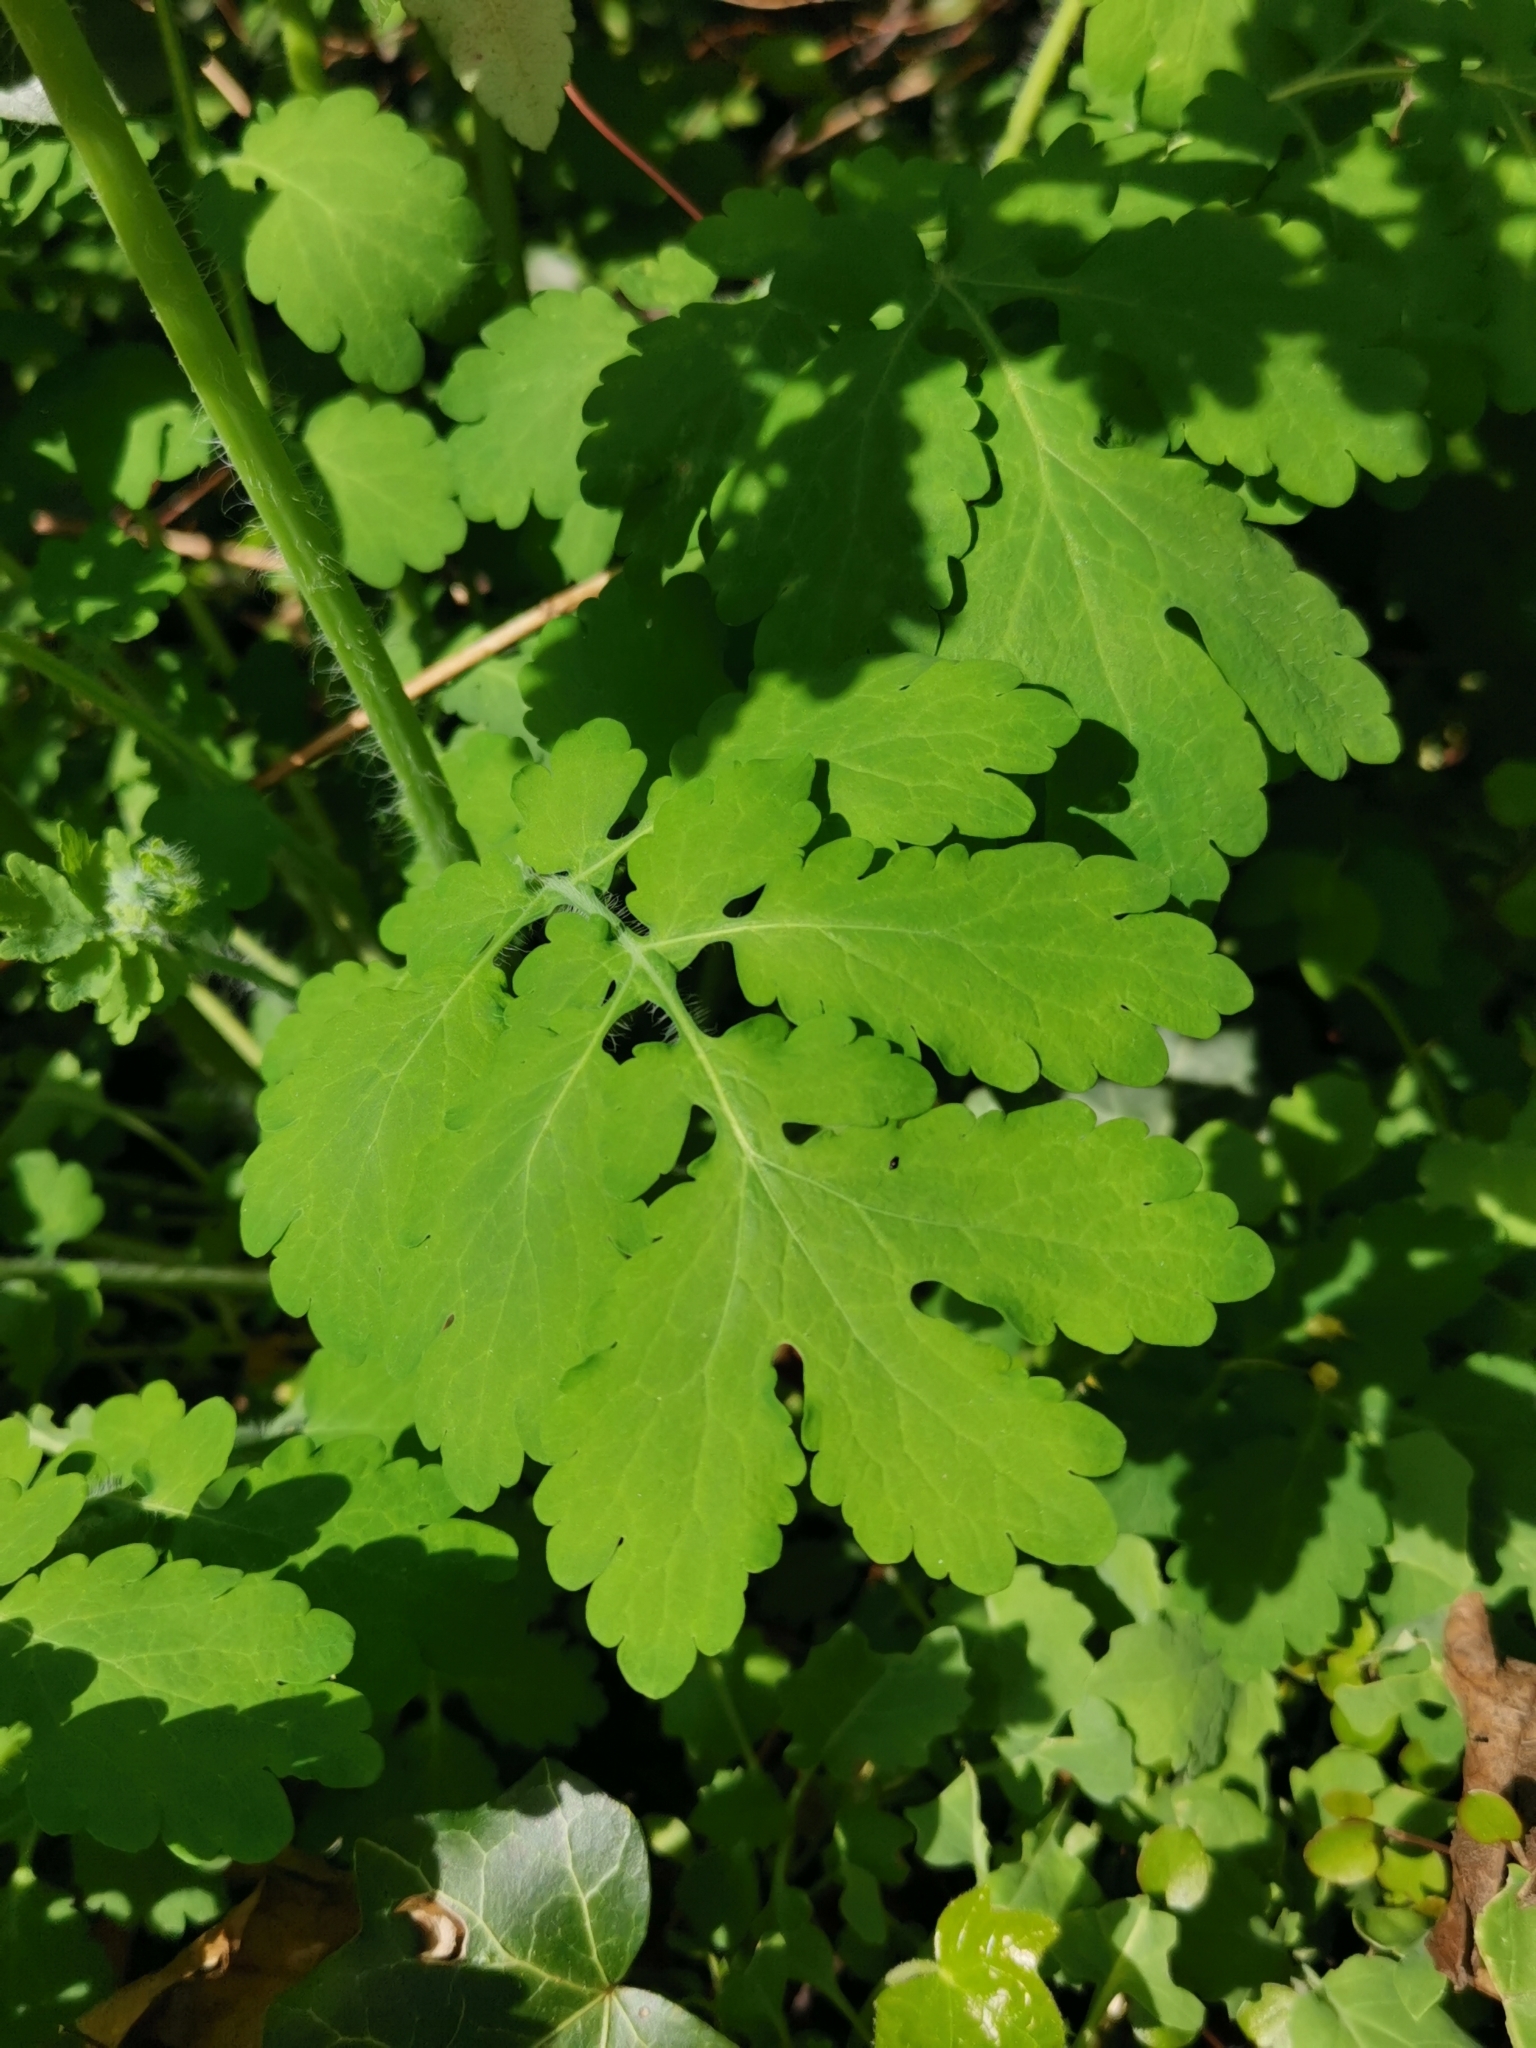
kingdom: Plantae
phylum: Tracheophyta
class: Magnoliopsida
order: Ranunculales
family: Papaveraceae
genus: Chelidonium
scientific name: Chelidonium majus
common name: Greater celandine
